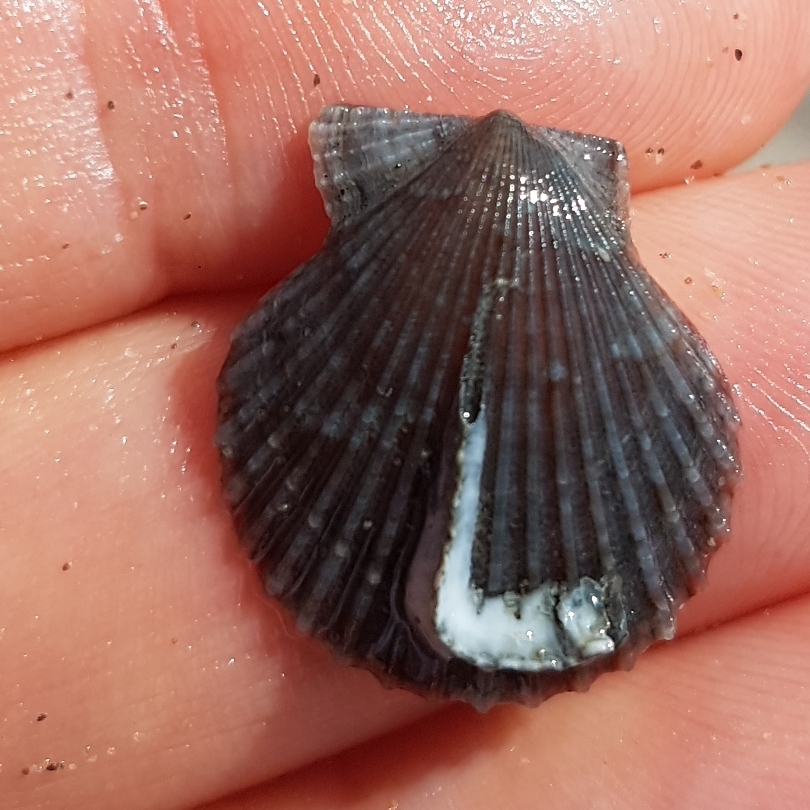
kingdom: Animalia
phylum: Mollusca
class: Bivalvia
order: Pectinida
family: Pectinidae
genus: Aequipecten
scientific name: Aequipecten opercularis
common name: Queen scallop
